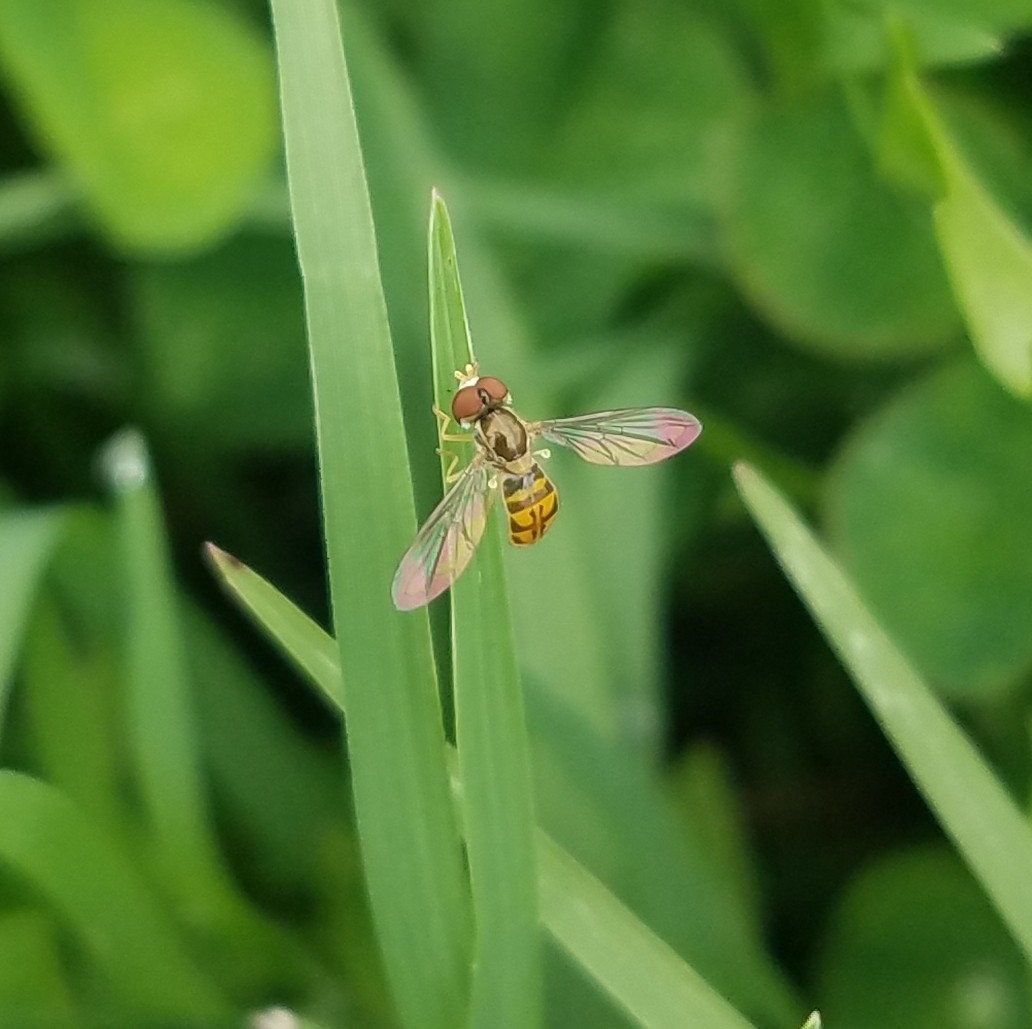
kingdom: Animalia
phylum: Arthropoda
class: Insecta
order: Diptera
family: Syrphidae
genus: Toxomerus
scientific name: Toxomerus marginatus
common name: Syrphid fly
